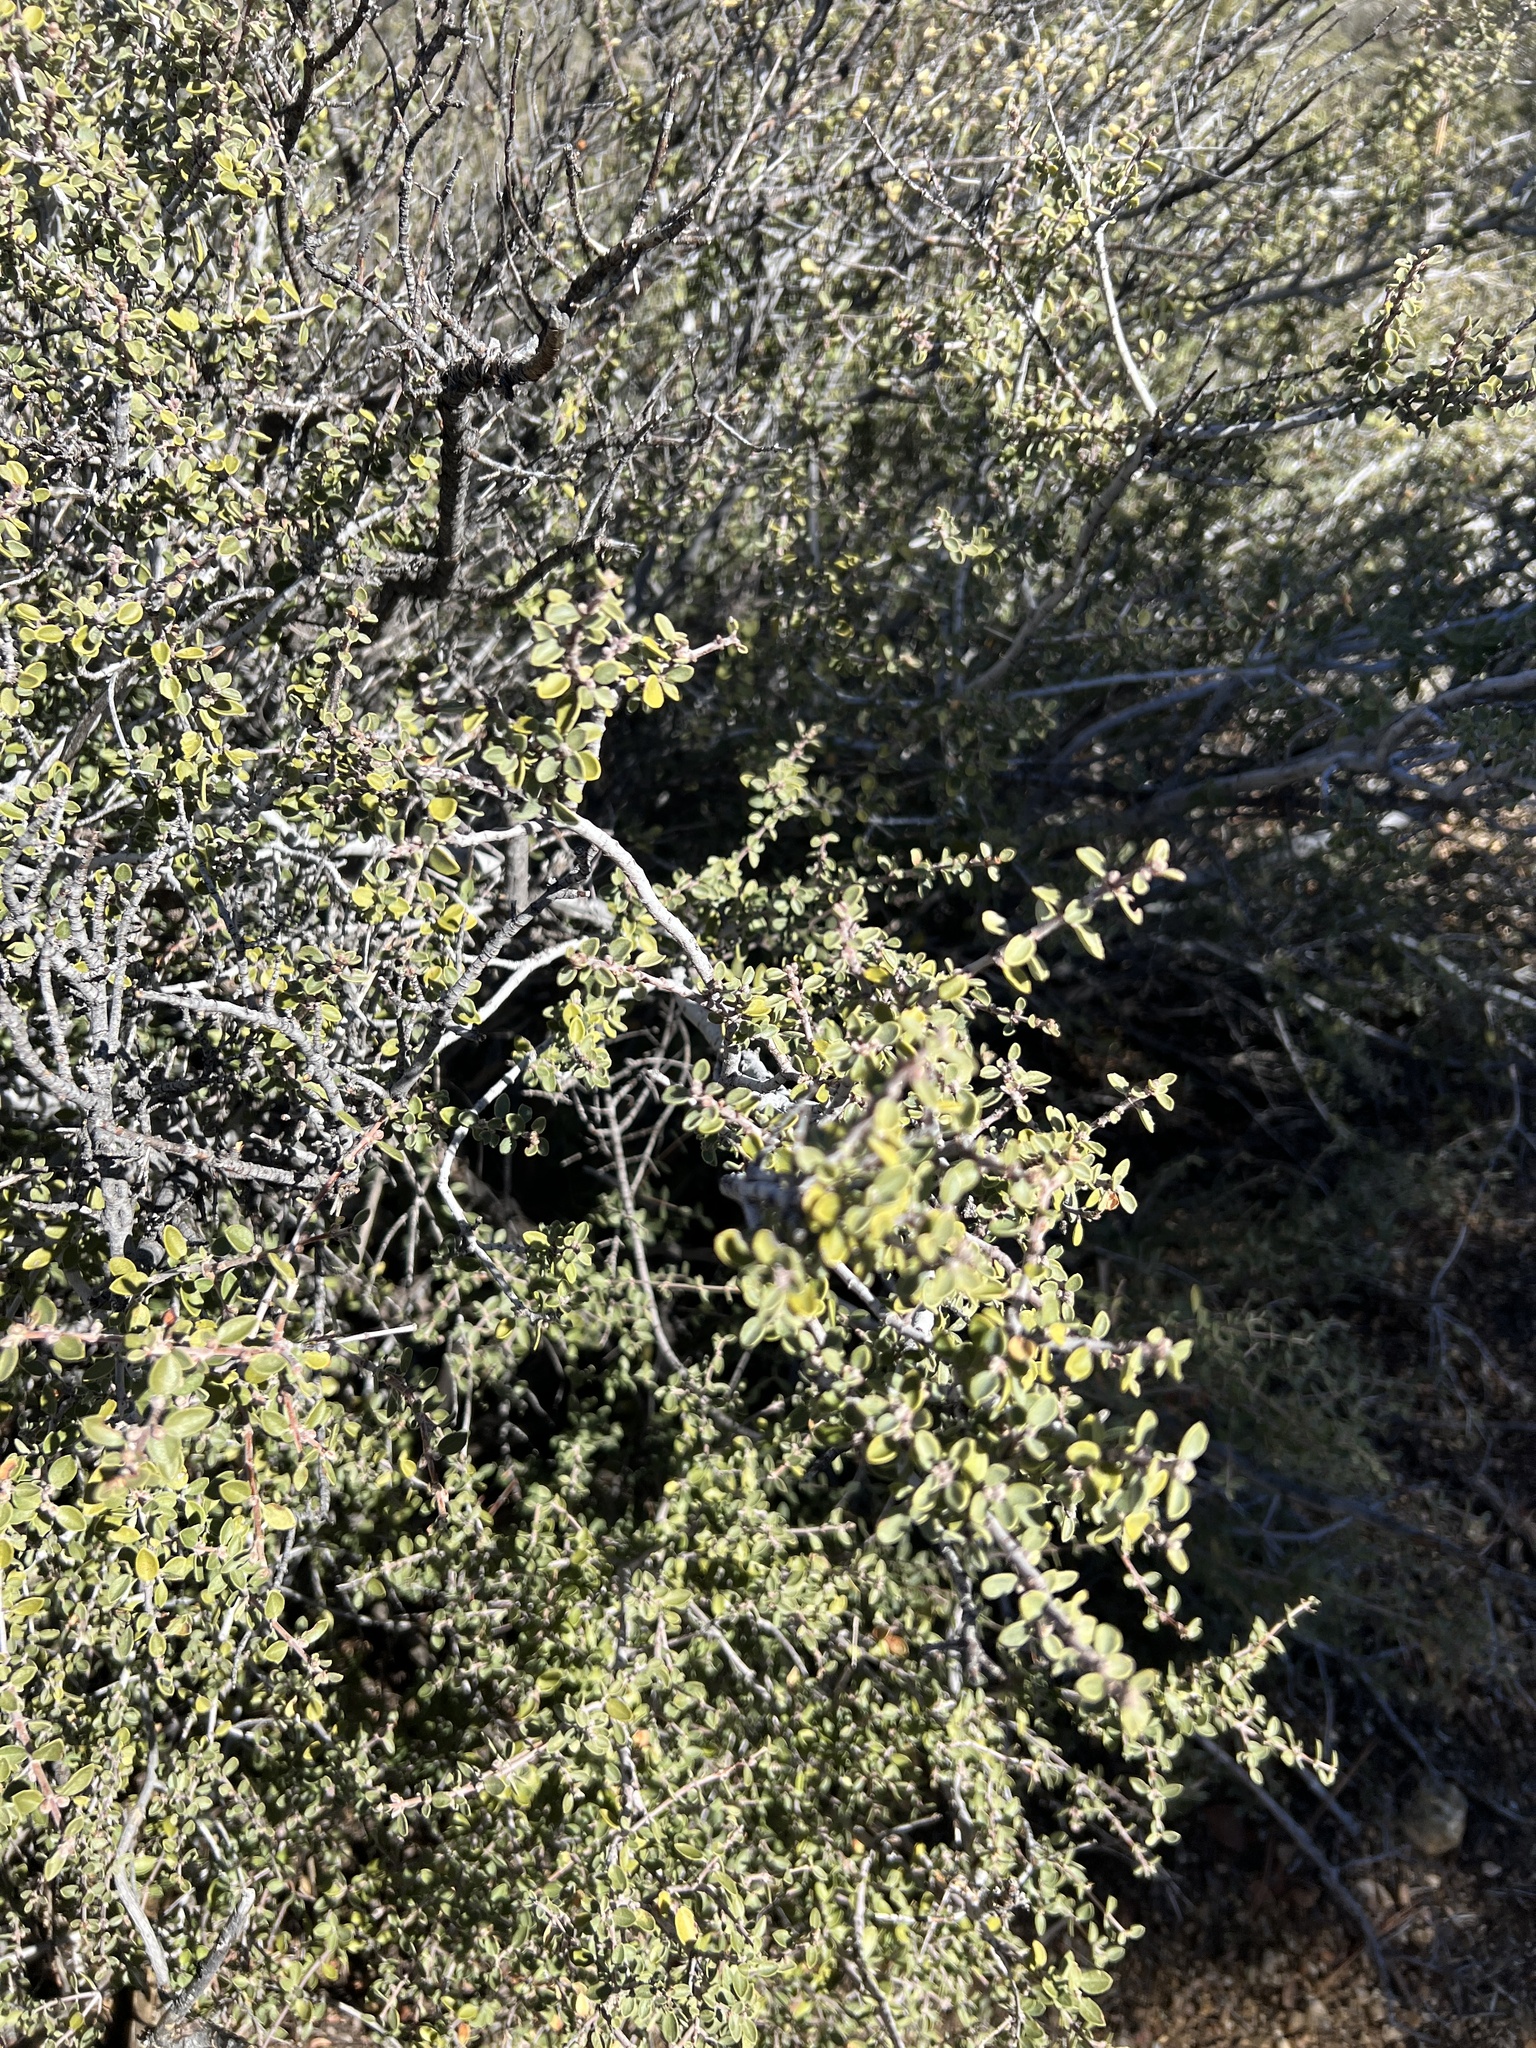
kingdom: Plantae
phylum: Tracheophyta
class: Magnoliopsida
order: Rosales
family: Rhamnaceae
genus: Ceanothus
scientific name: Ceanothus pauciflorus
